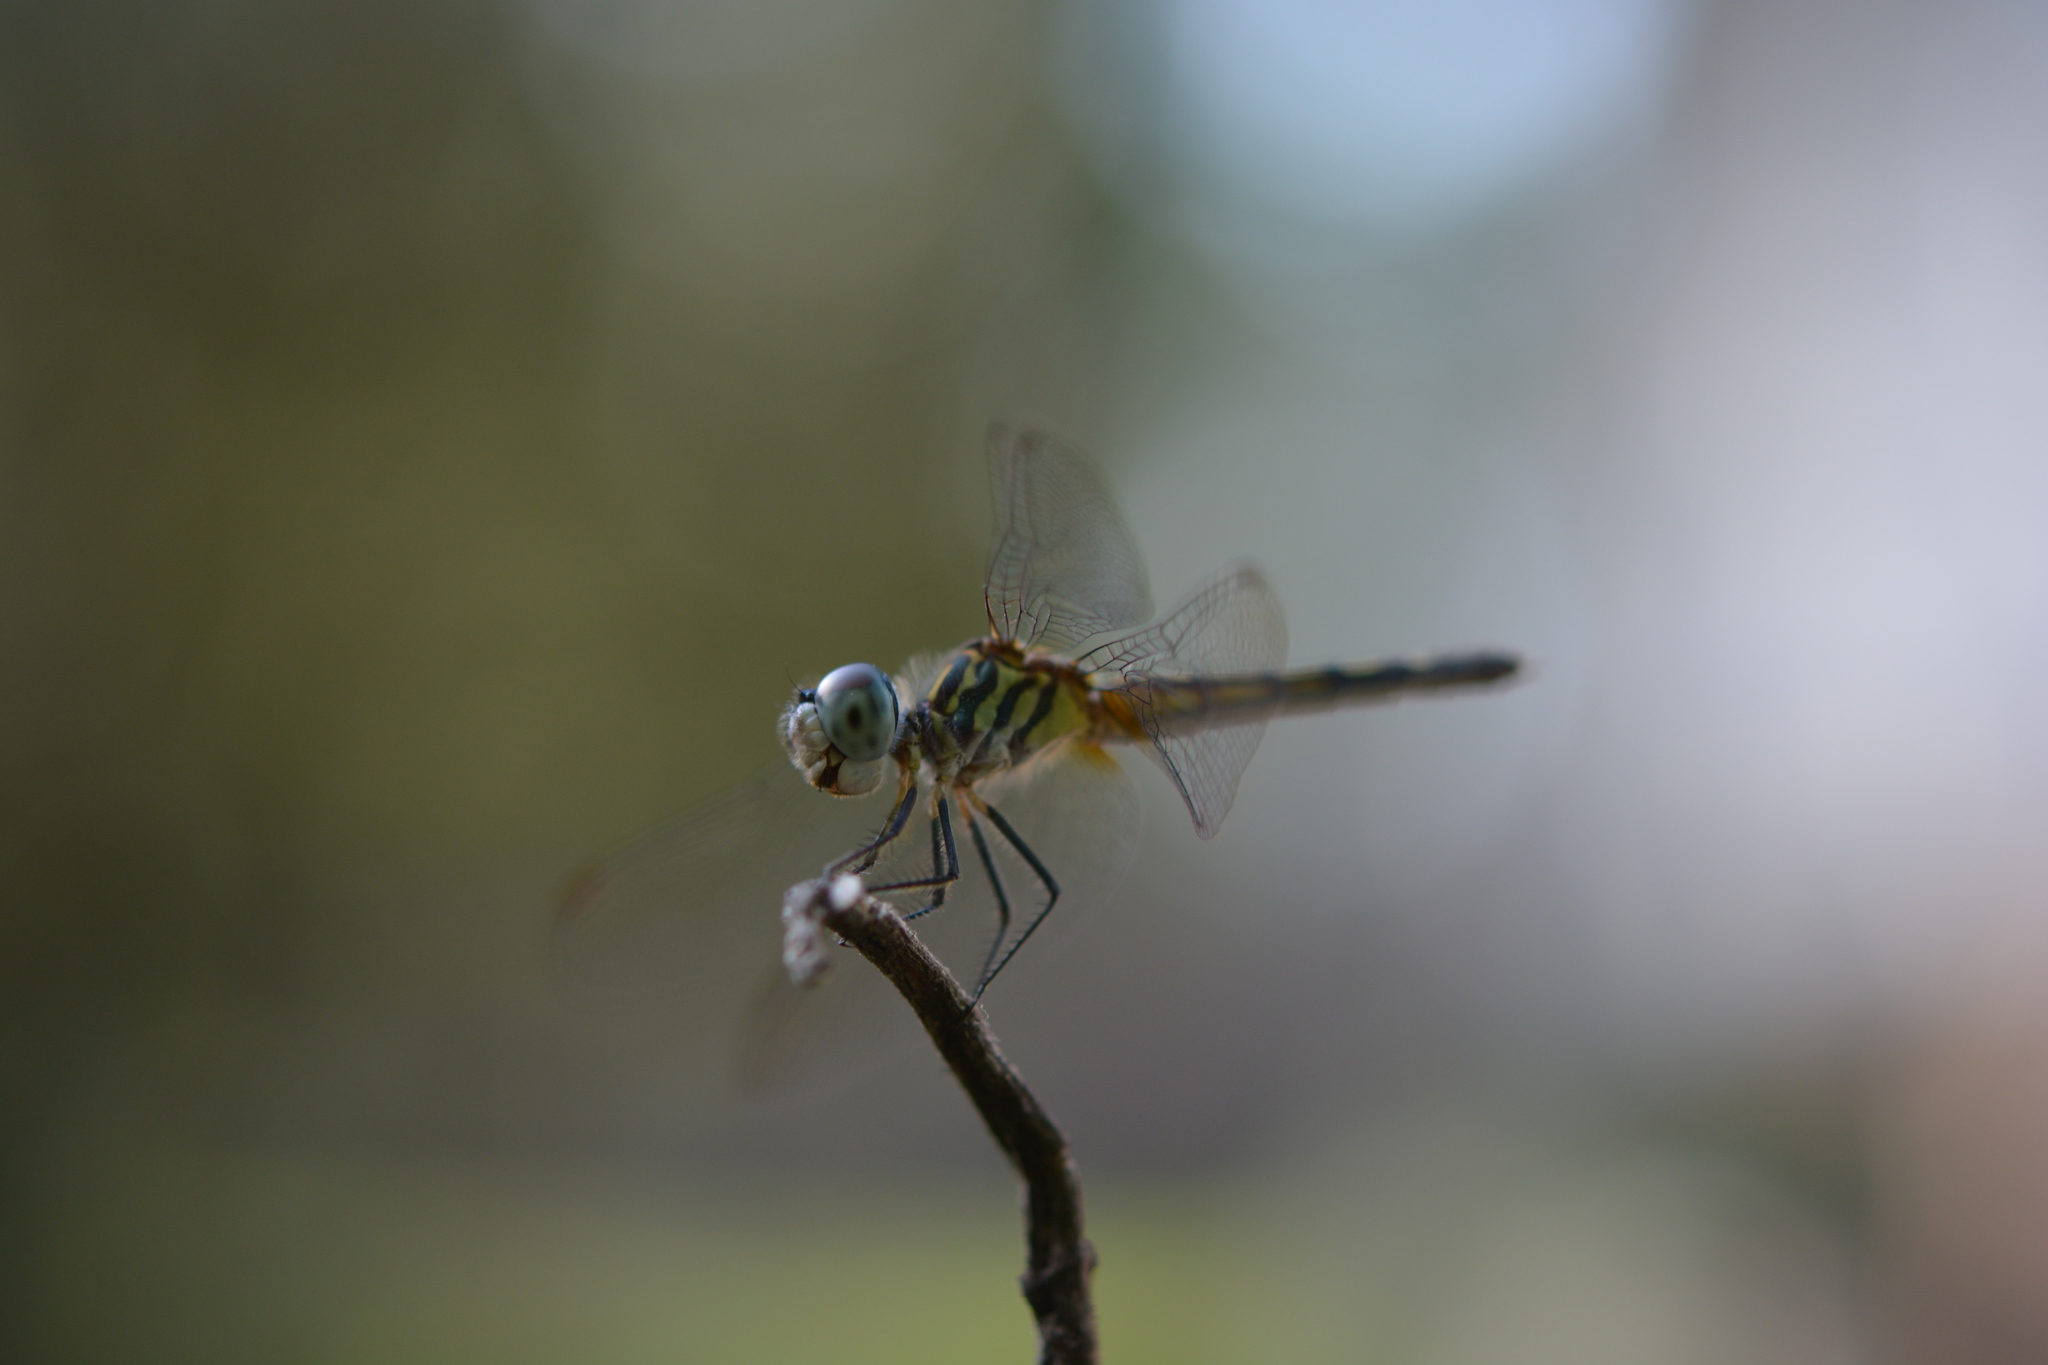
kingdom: Animalia
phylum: Arthropoda
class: Insecta
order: Odonata
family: Libellulidae
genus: Pachydiplax
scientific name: Pachydiplax longipennis
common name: Blue dasher
